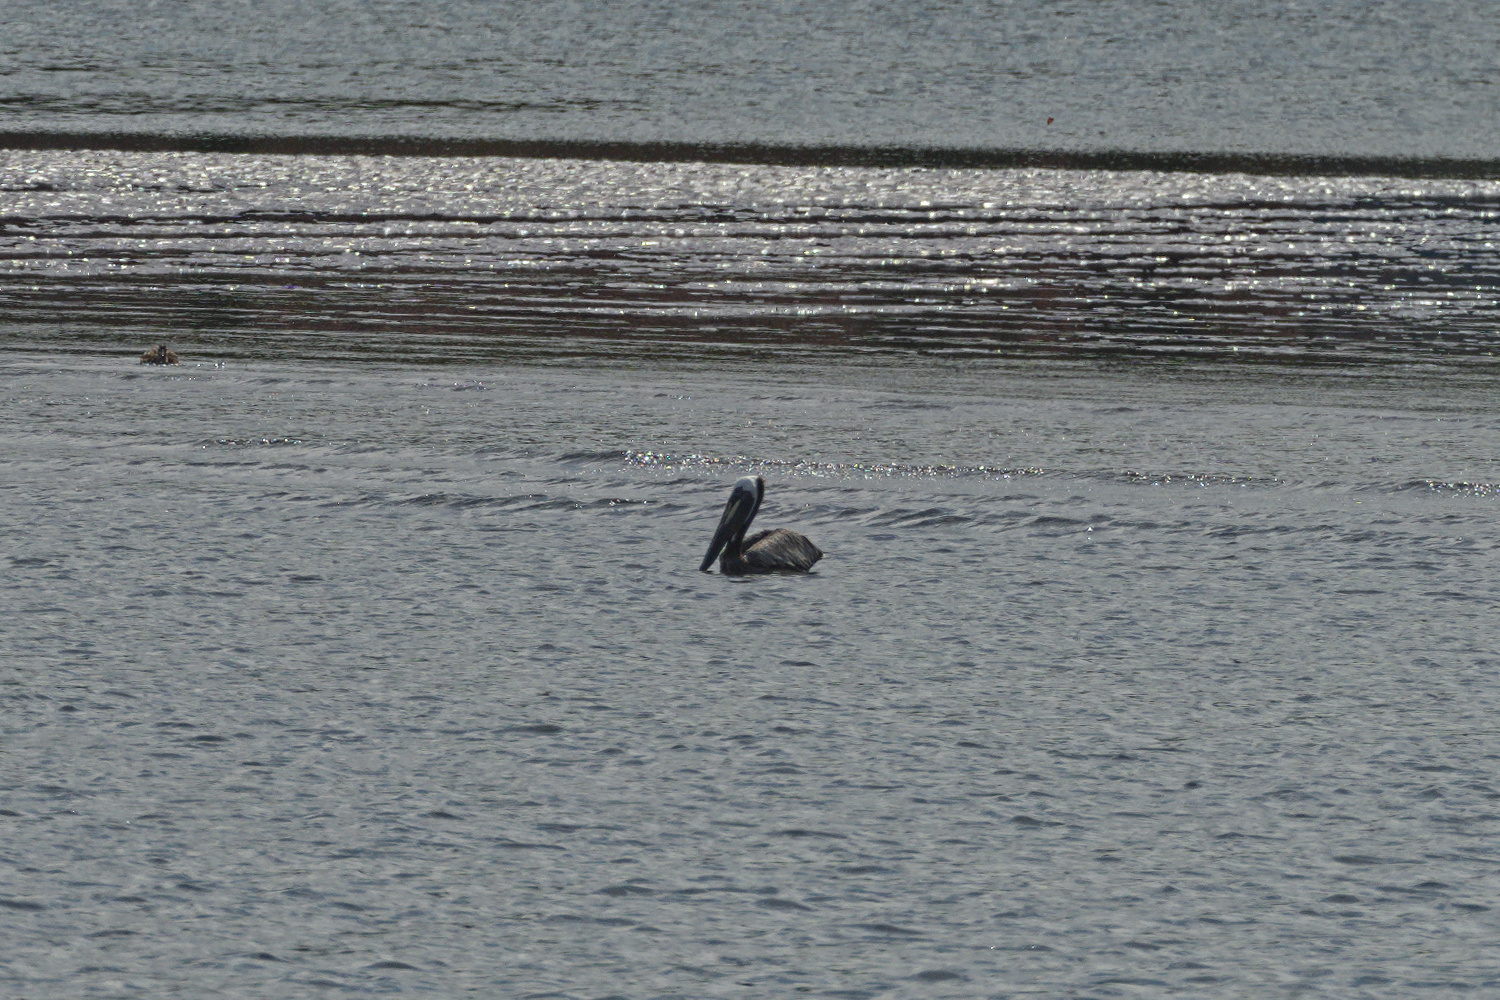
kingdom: Animalia
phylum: Chordata
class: Aves
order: Pelecaniformes
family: Pelecanidae
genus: Pelecanus
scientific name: Pelecanus occidentalis
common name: Brown pelican
